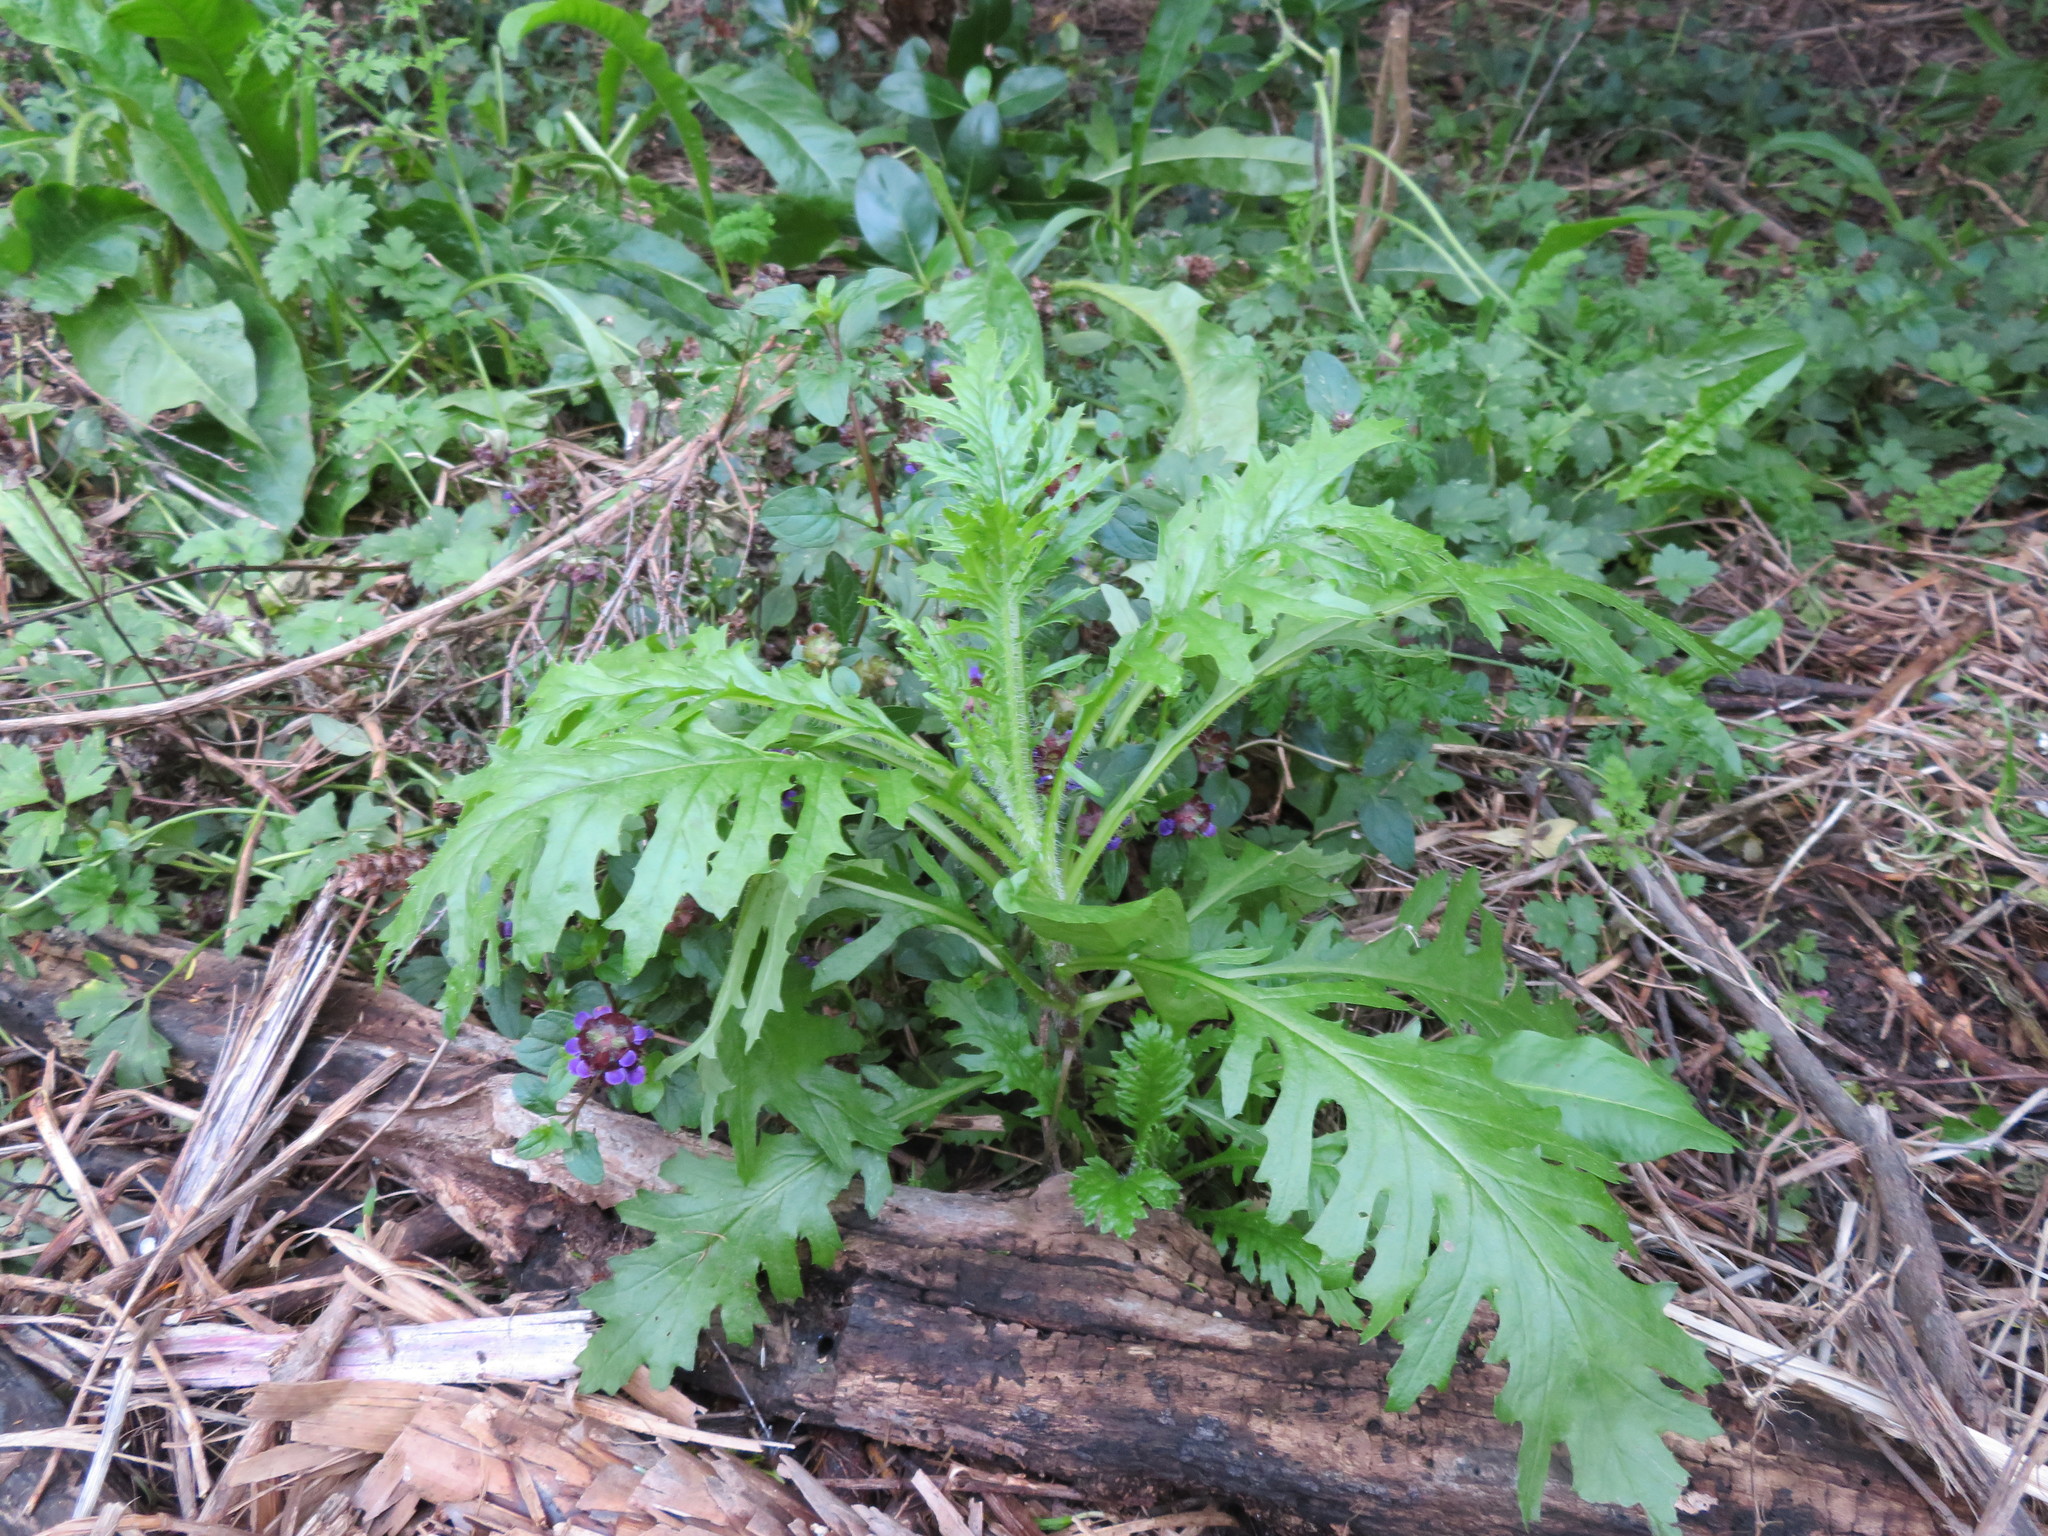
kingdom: Plantae
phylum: Tracheophyta
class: Magnoliopsida
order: Asterales
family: Asteraceae
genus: Senecio
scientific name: Senecio esleri
